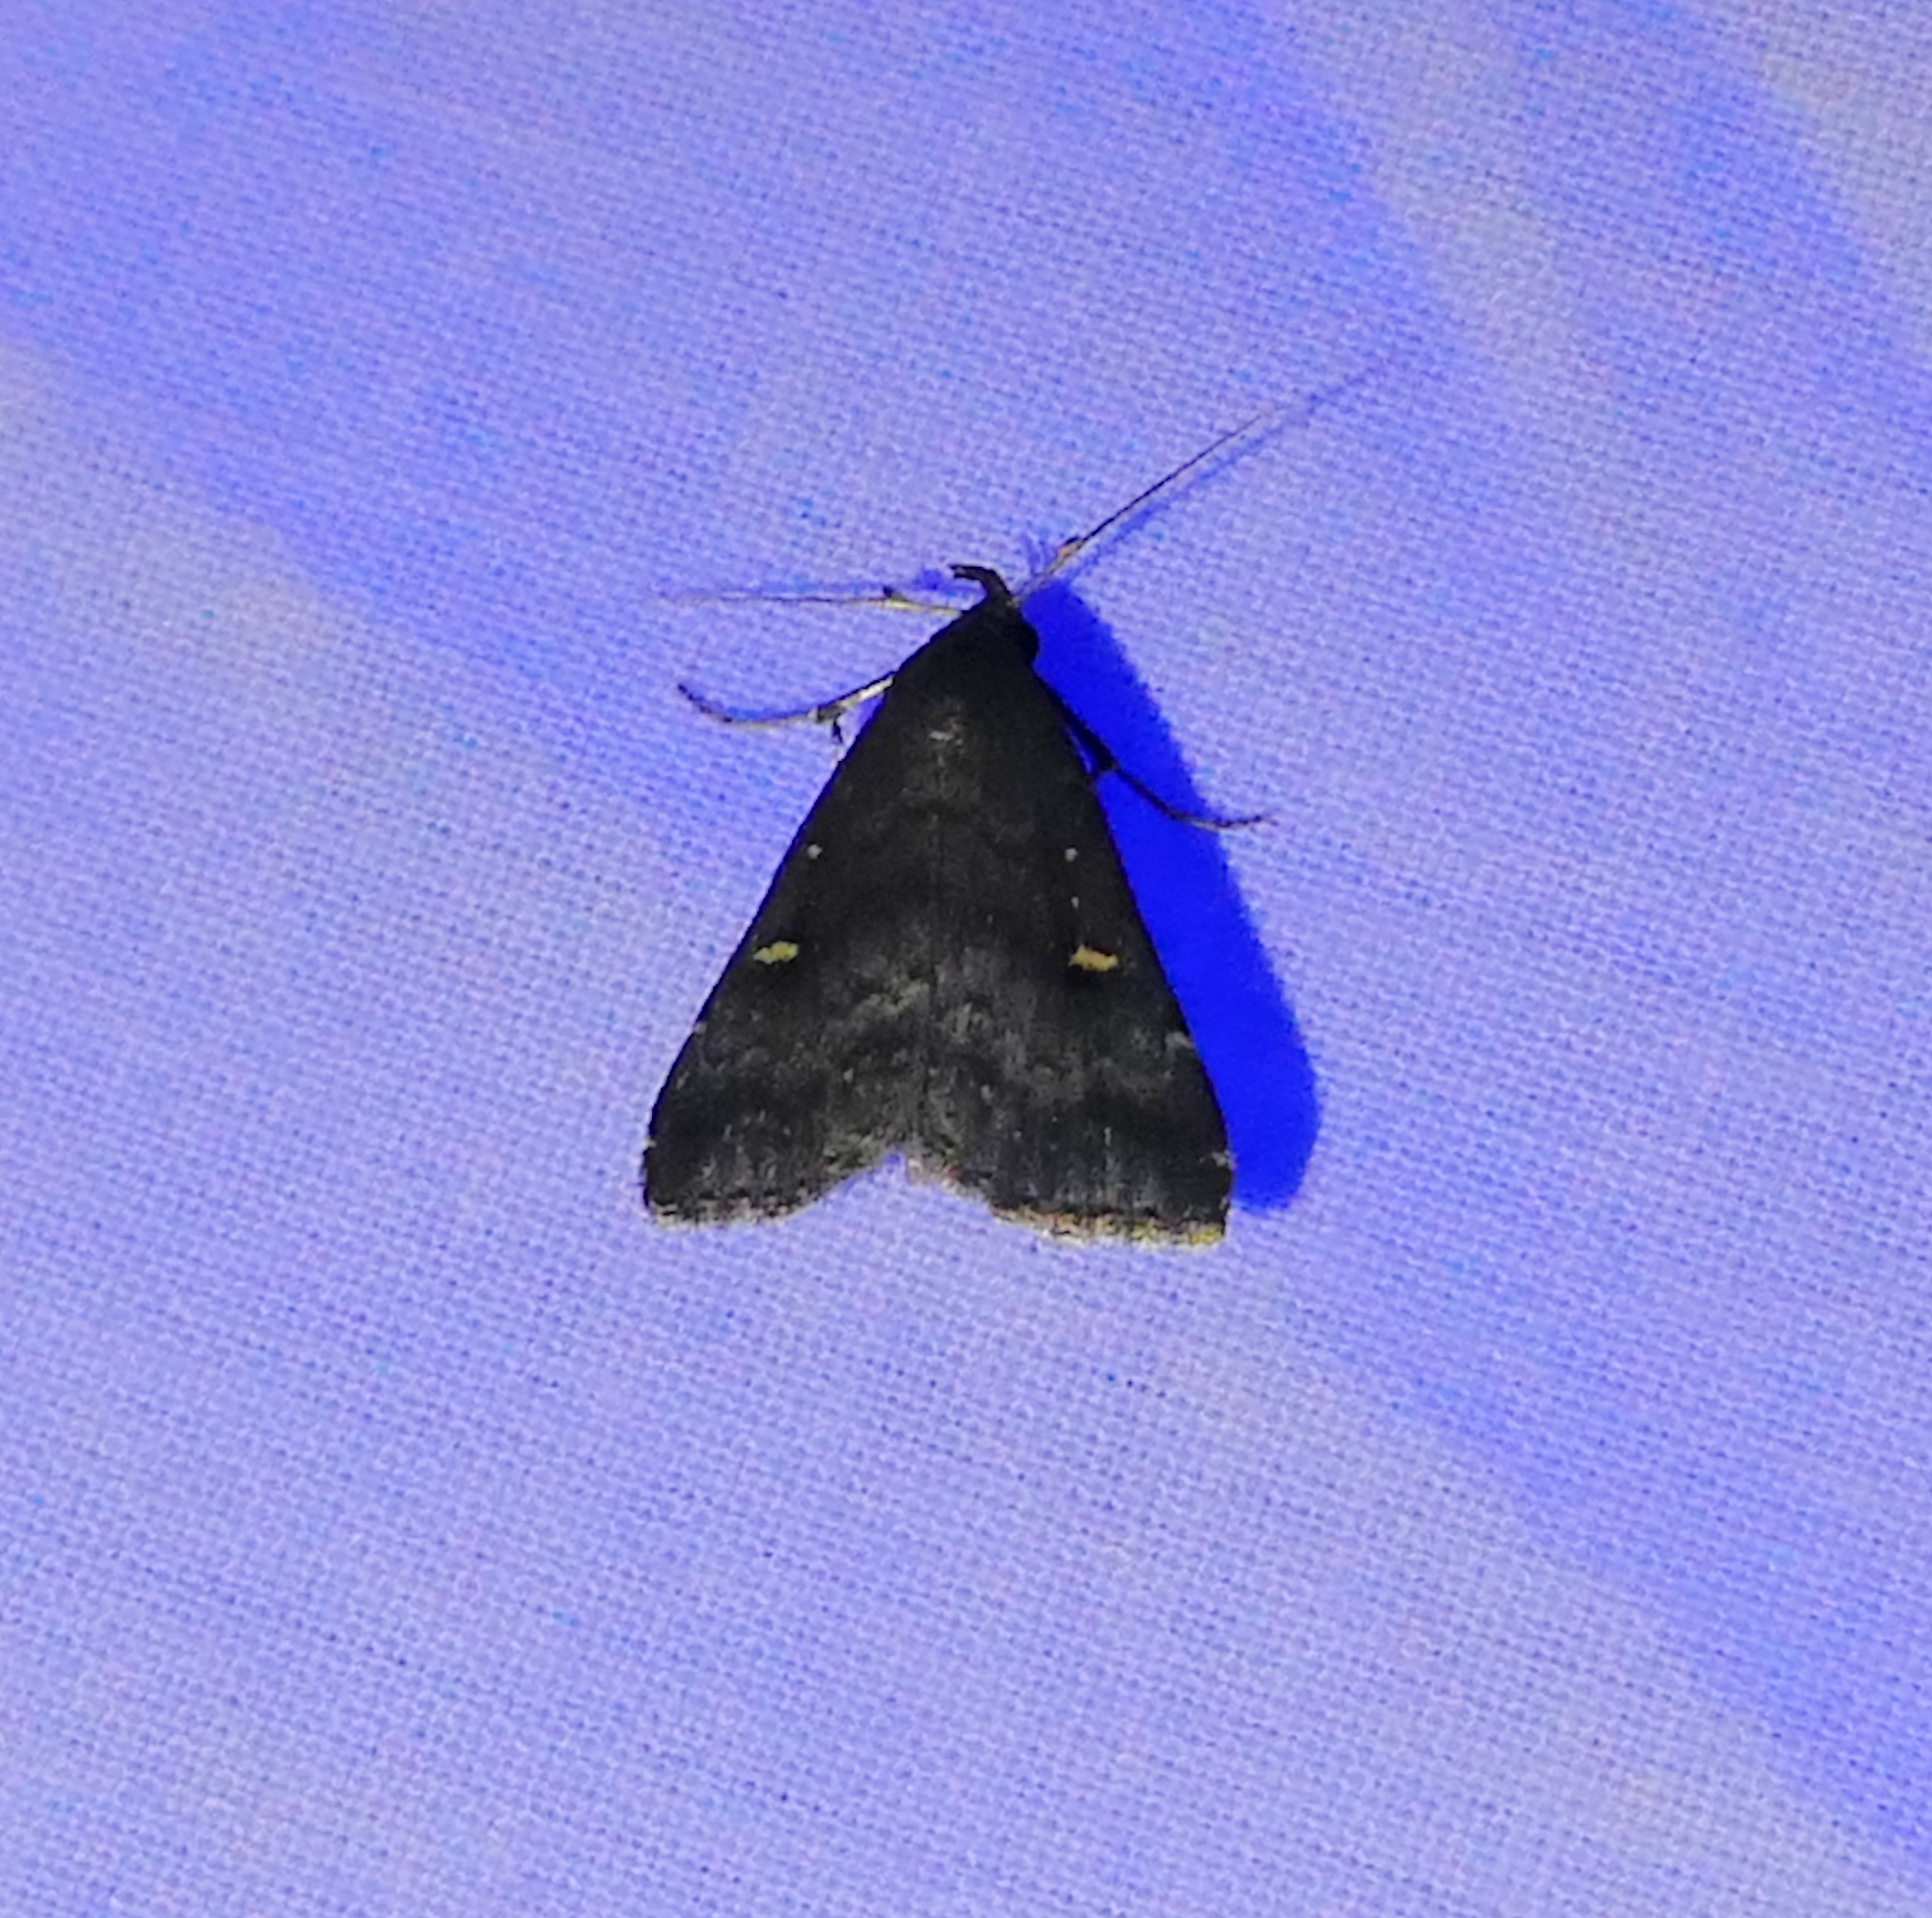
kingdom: Animalia
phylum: Arthropoda
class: Insecta
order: Lepidoptera
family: Erebidae
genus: Tetanolita
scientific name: Tetanolita mynesalis
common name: Smoky tetanolita moth
